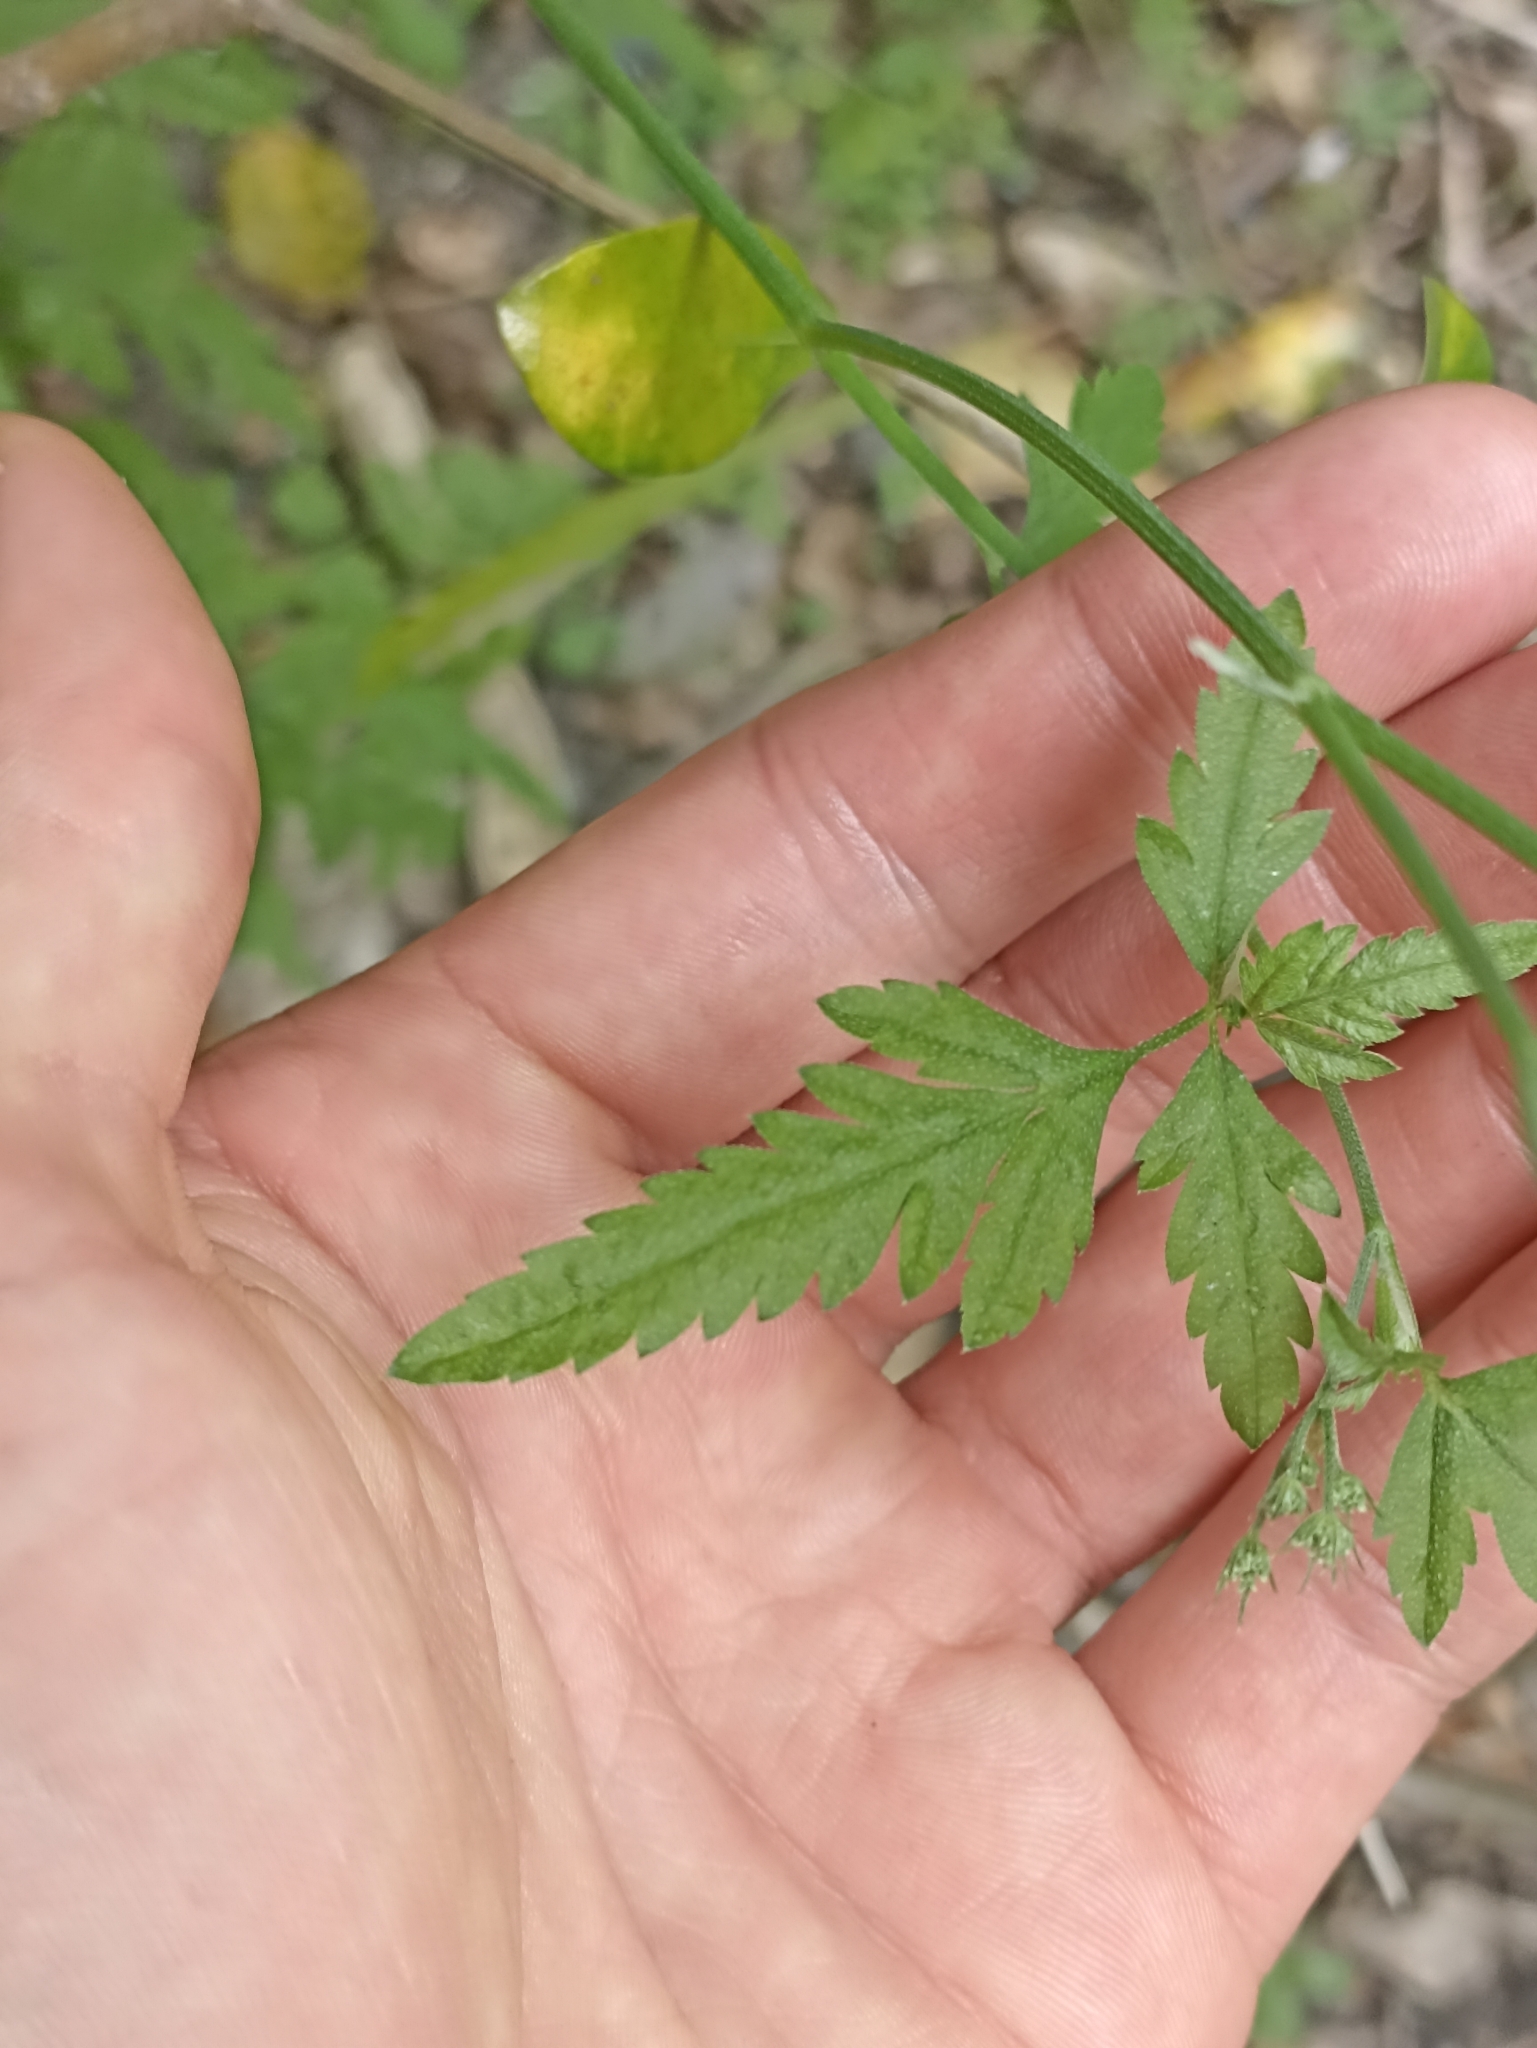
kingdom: Plantae
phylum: Tracheophyta
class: Magnoliopsida
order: Apiales
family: Apiaceae
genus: Torilis
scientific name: Torilis arvensis
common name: Spreading hedge-parsley
